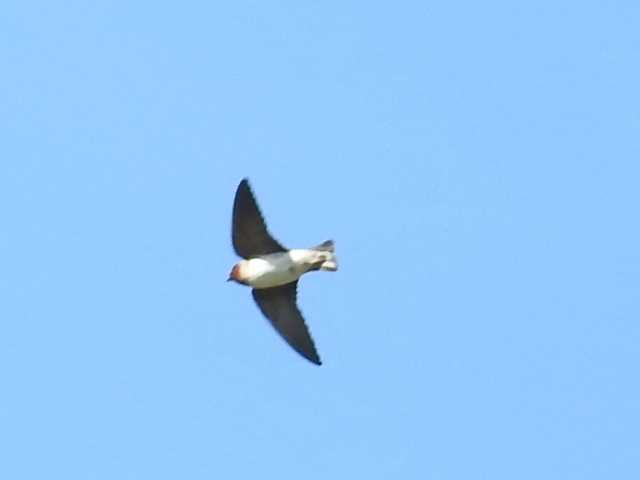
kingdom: Animalia
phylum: Chordata
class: Aves
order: Passeriformes
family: Hirundinidae
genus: Petrochelidon
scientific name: Petrochelidon pyrrhonota
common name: American cliff swallow
